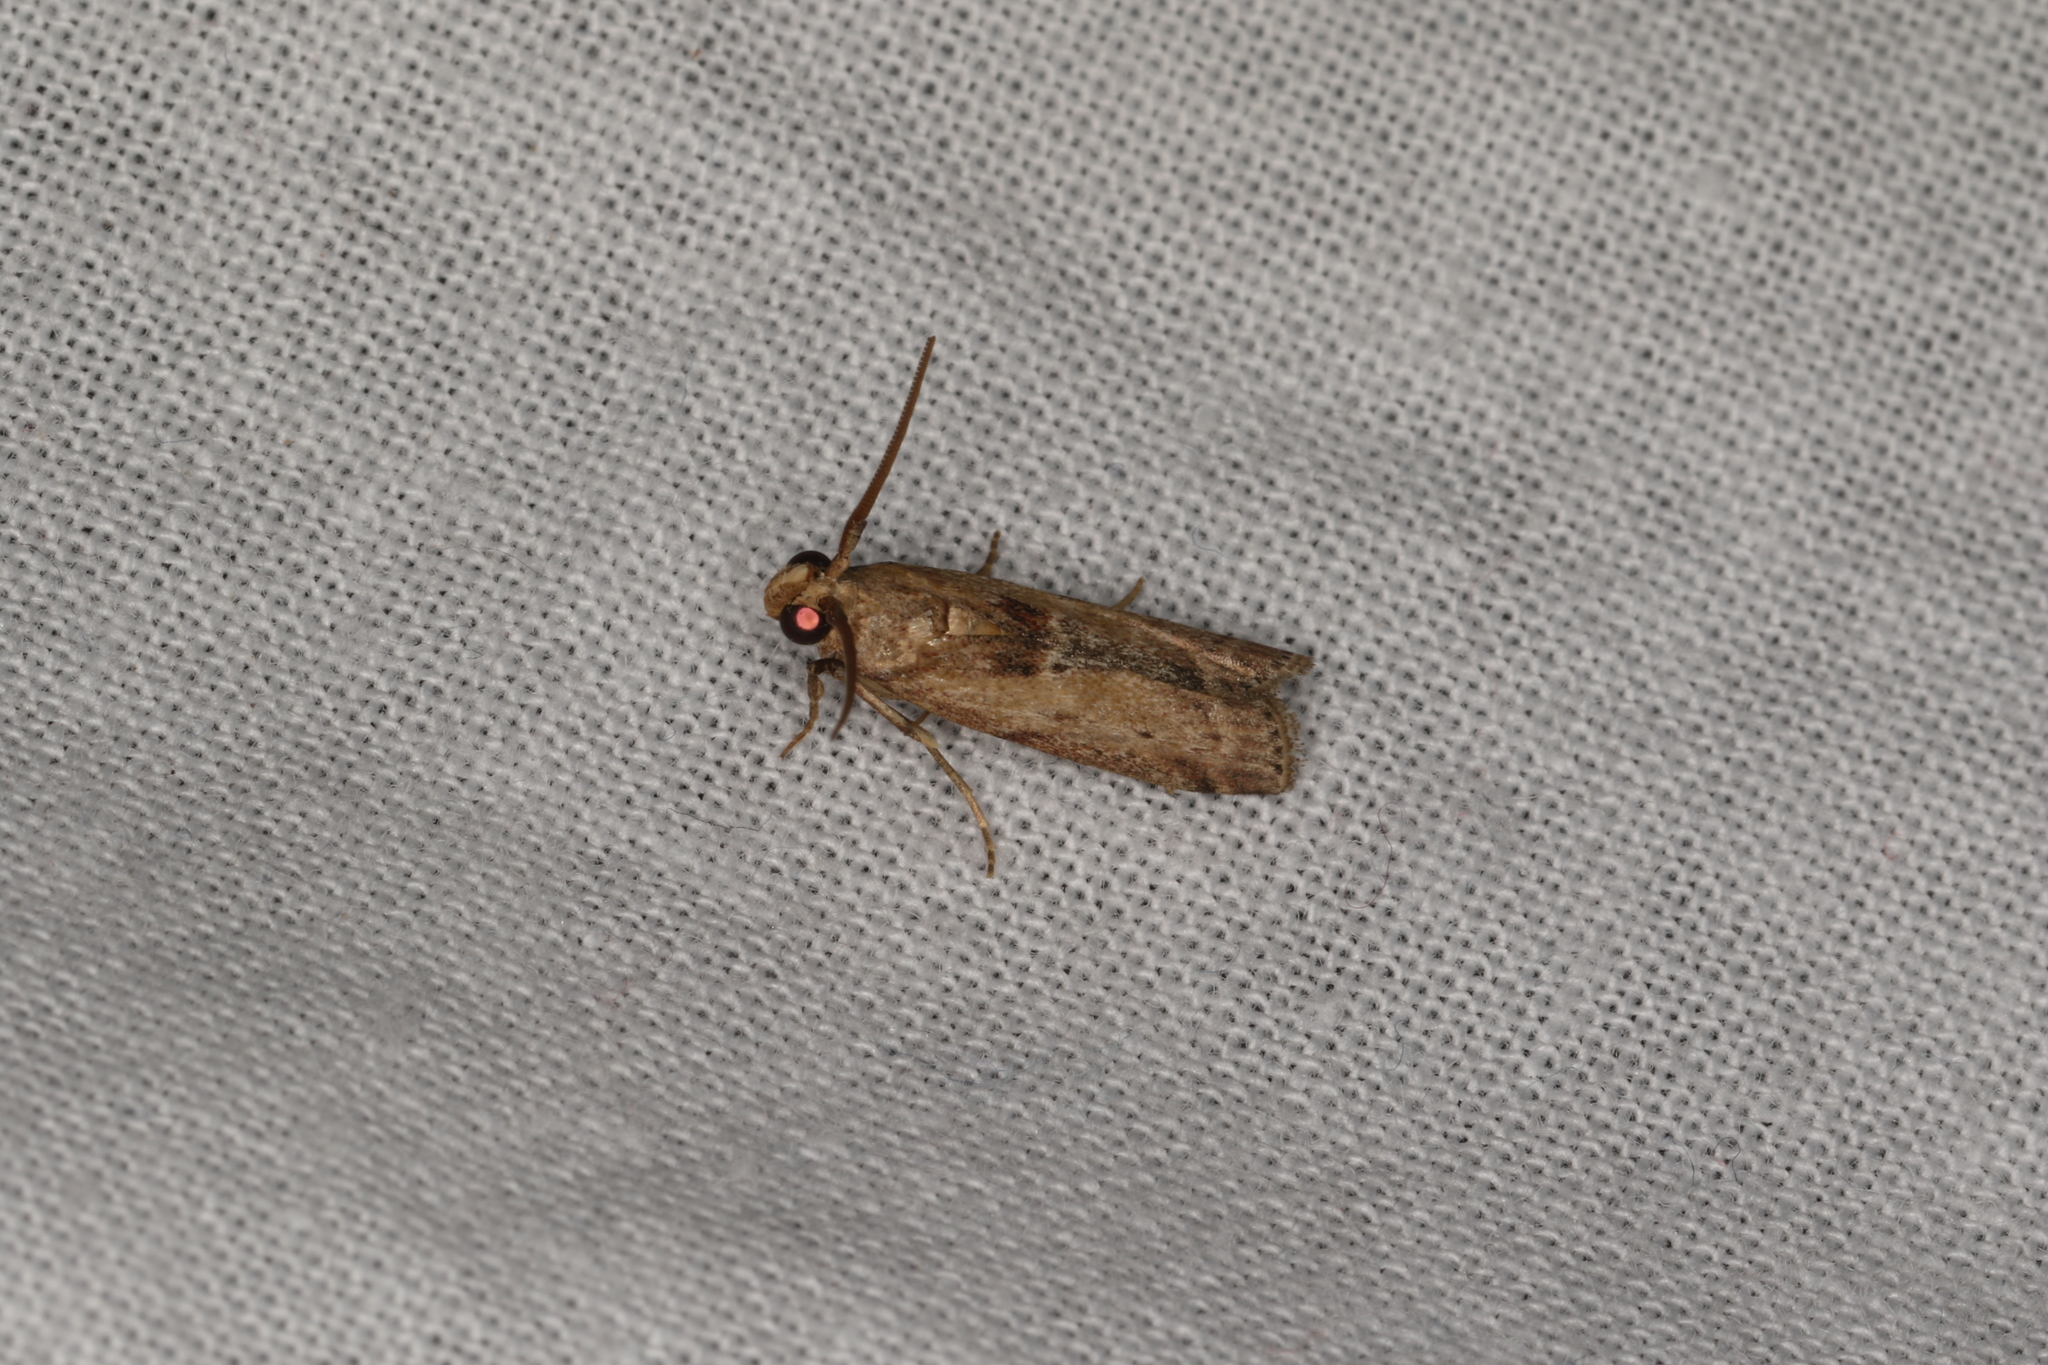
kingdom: Animalia
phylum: Arthropoda
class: Insecta
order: Lepidoptera
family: Pyralidae
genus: Morosaphycita
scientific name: Morosaphycita oculiferella
